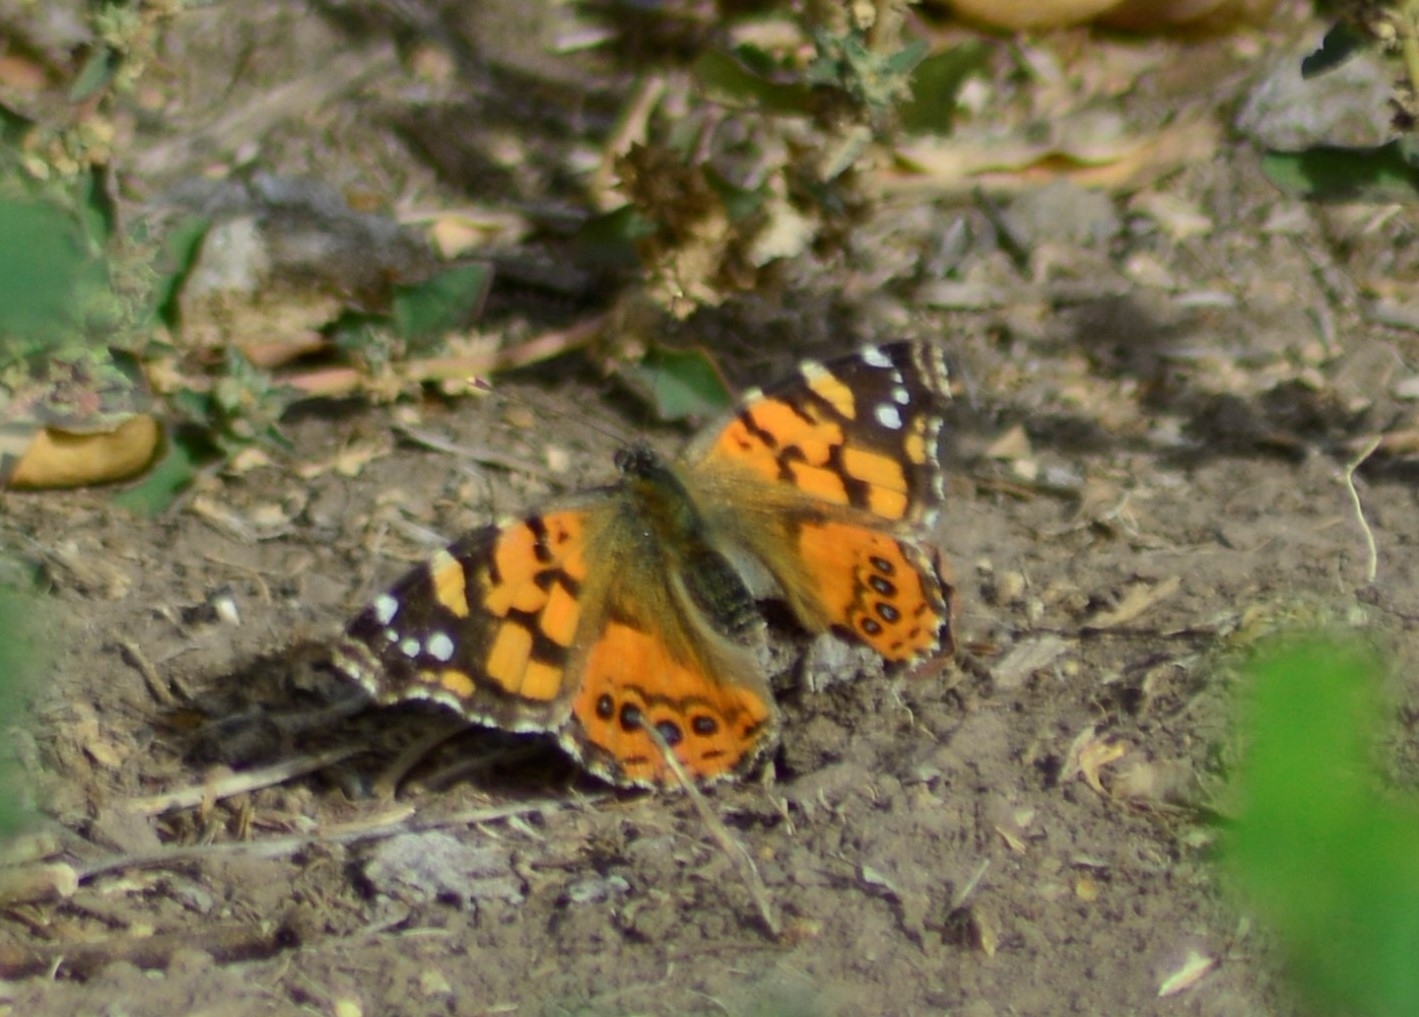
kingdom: Animalia
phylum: Arthropoda
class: Insecta
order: Lepidoptera
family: Nymphalidae
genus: Vanessa
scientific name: Vanessa carye
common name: Subtropical lady
